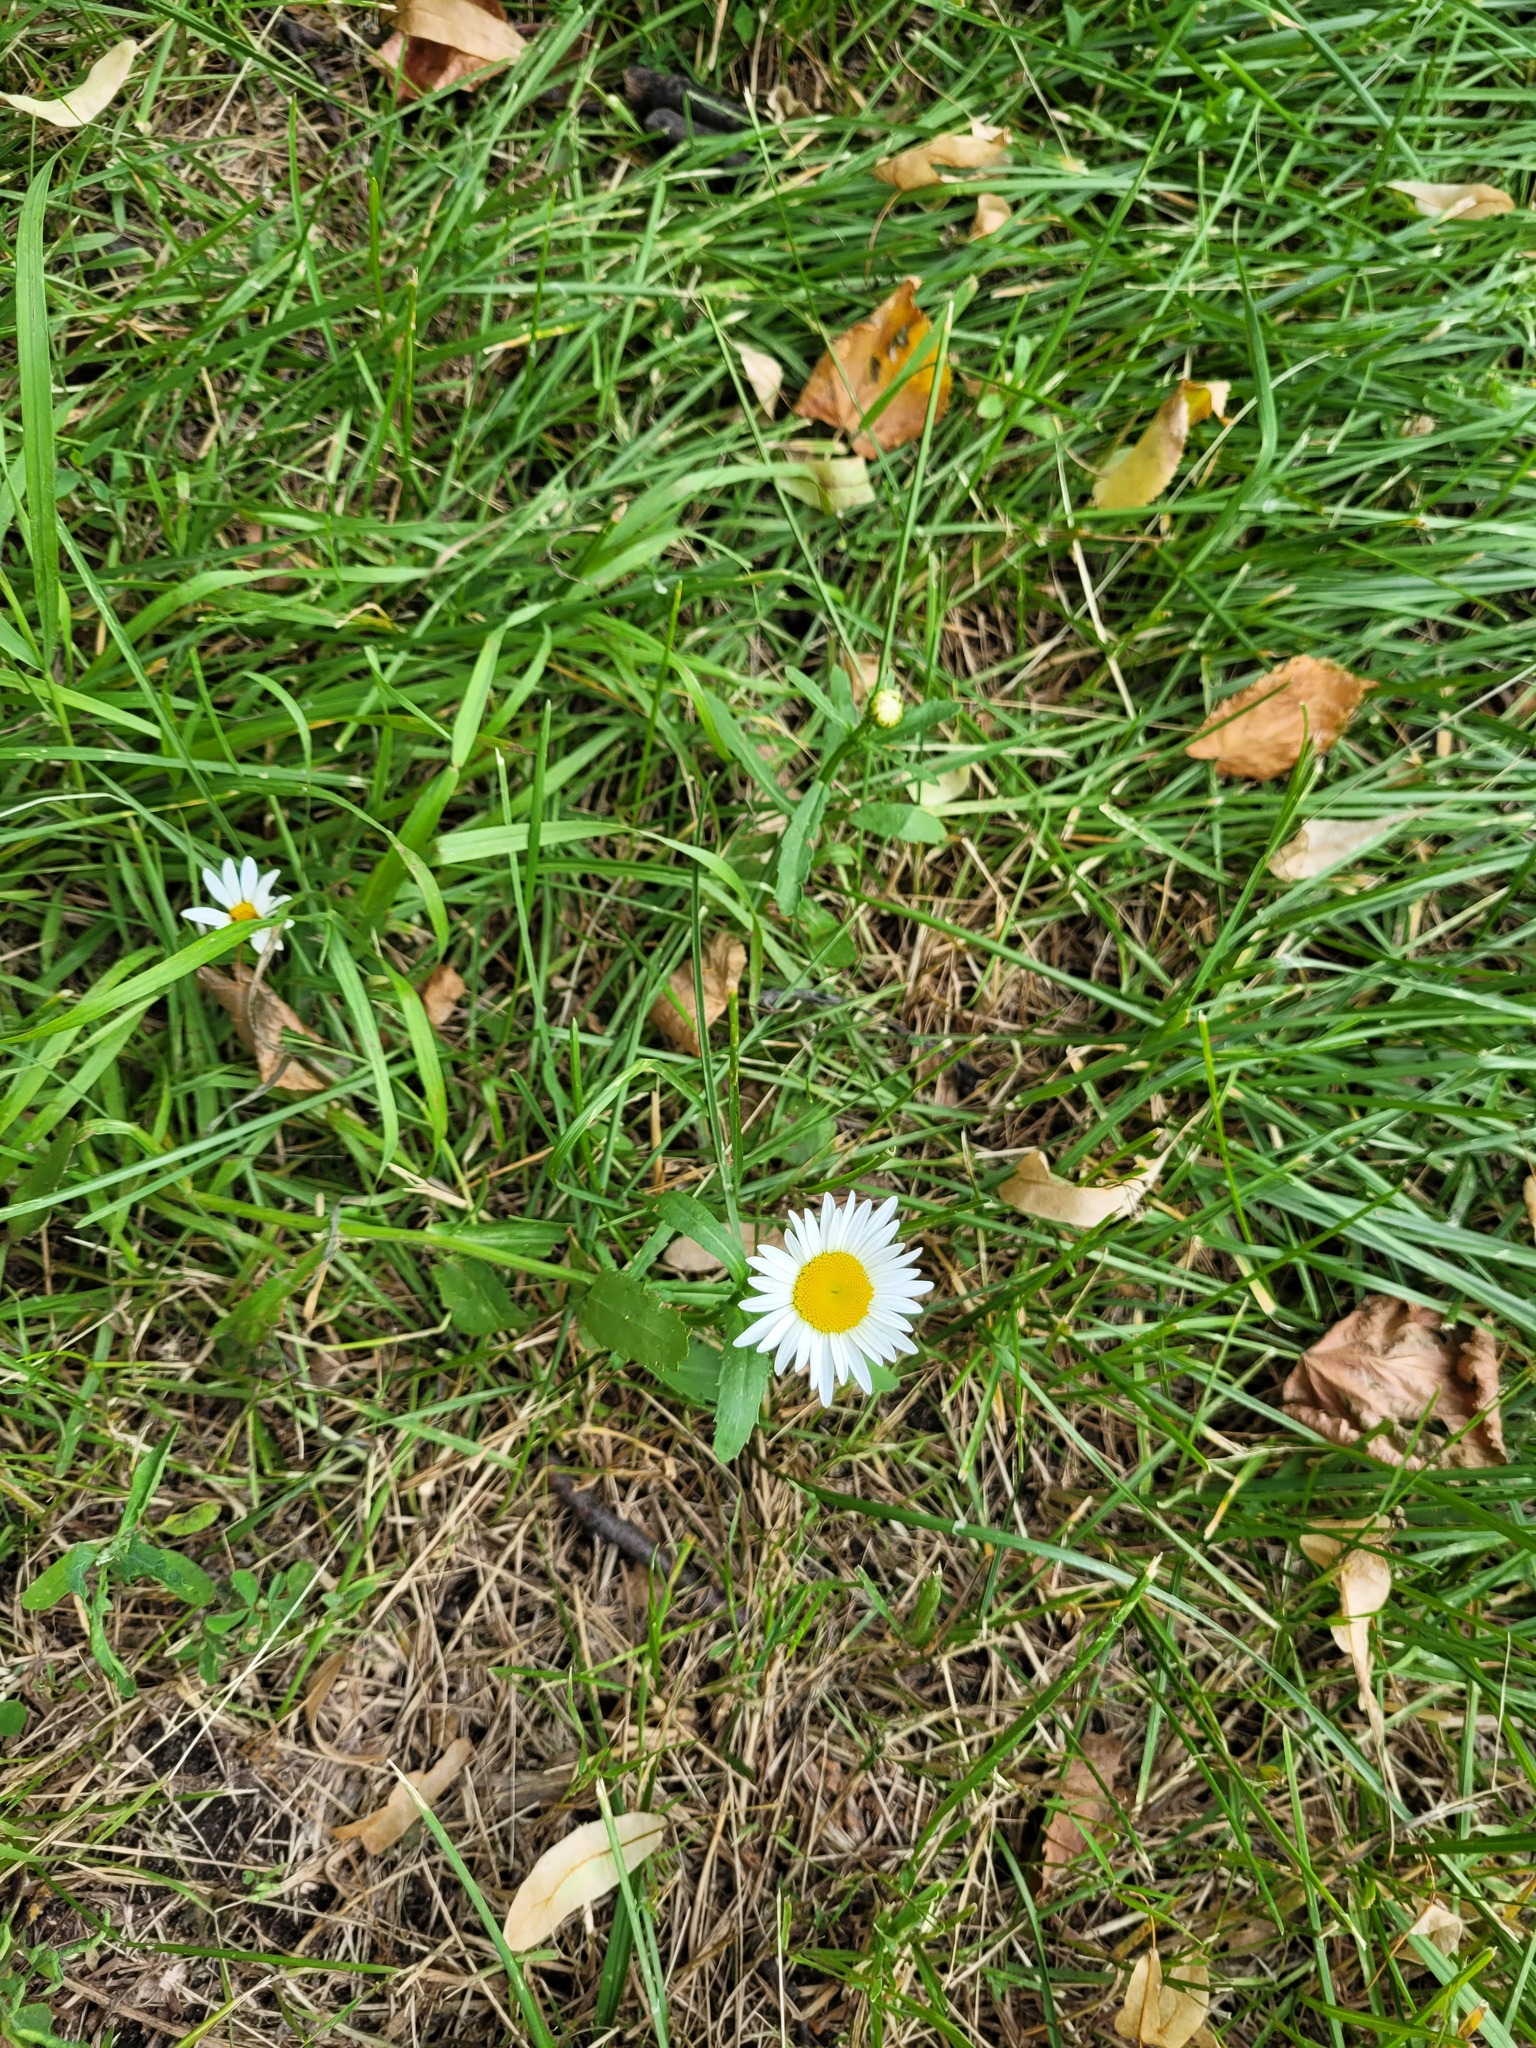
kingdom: Plantae
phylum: Tracheophyta
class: Magnoliopsida
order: Asterales
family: Asteraceae
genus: Leucanthemum
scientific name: Leucanthemum vulgare
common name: Oxeye daisy
